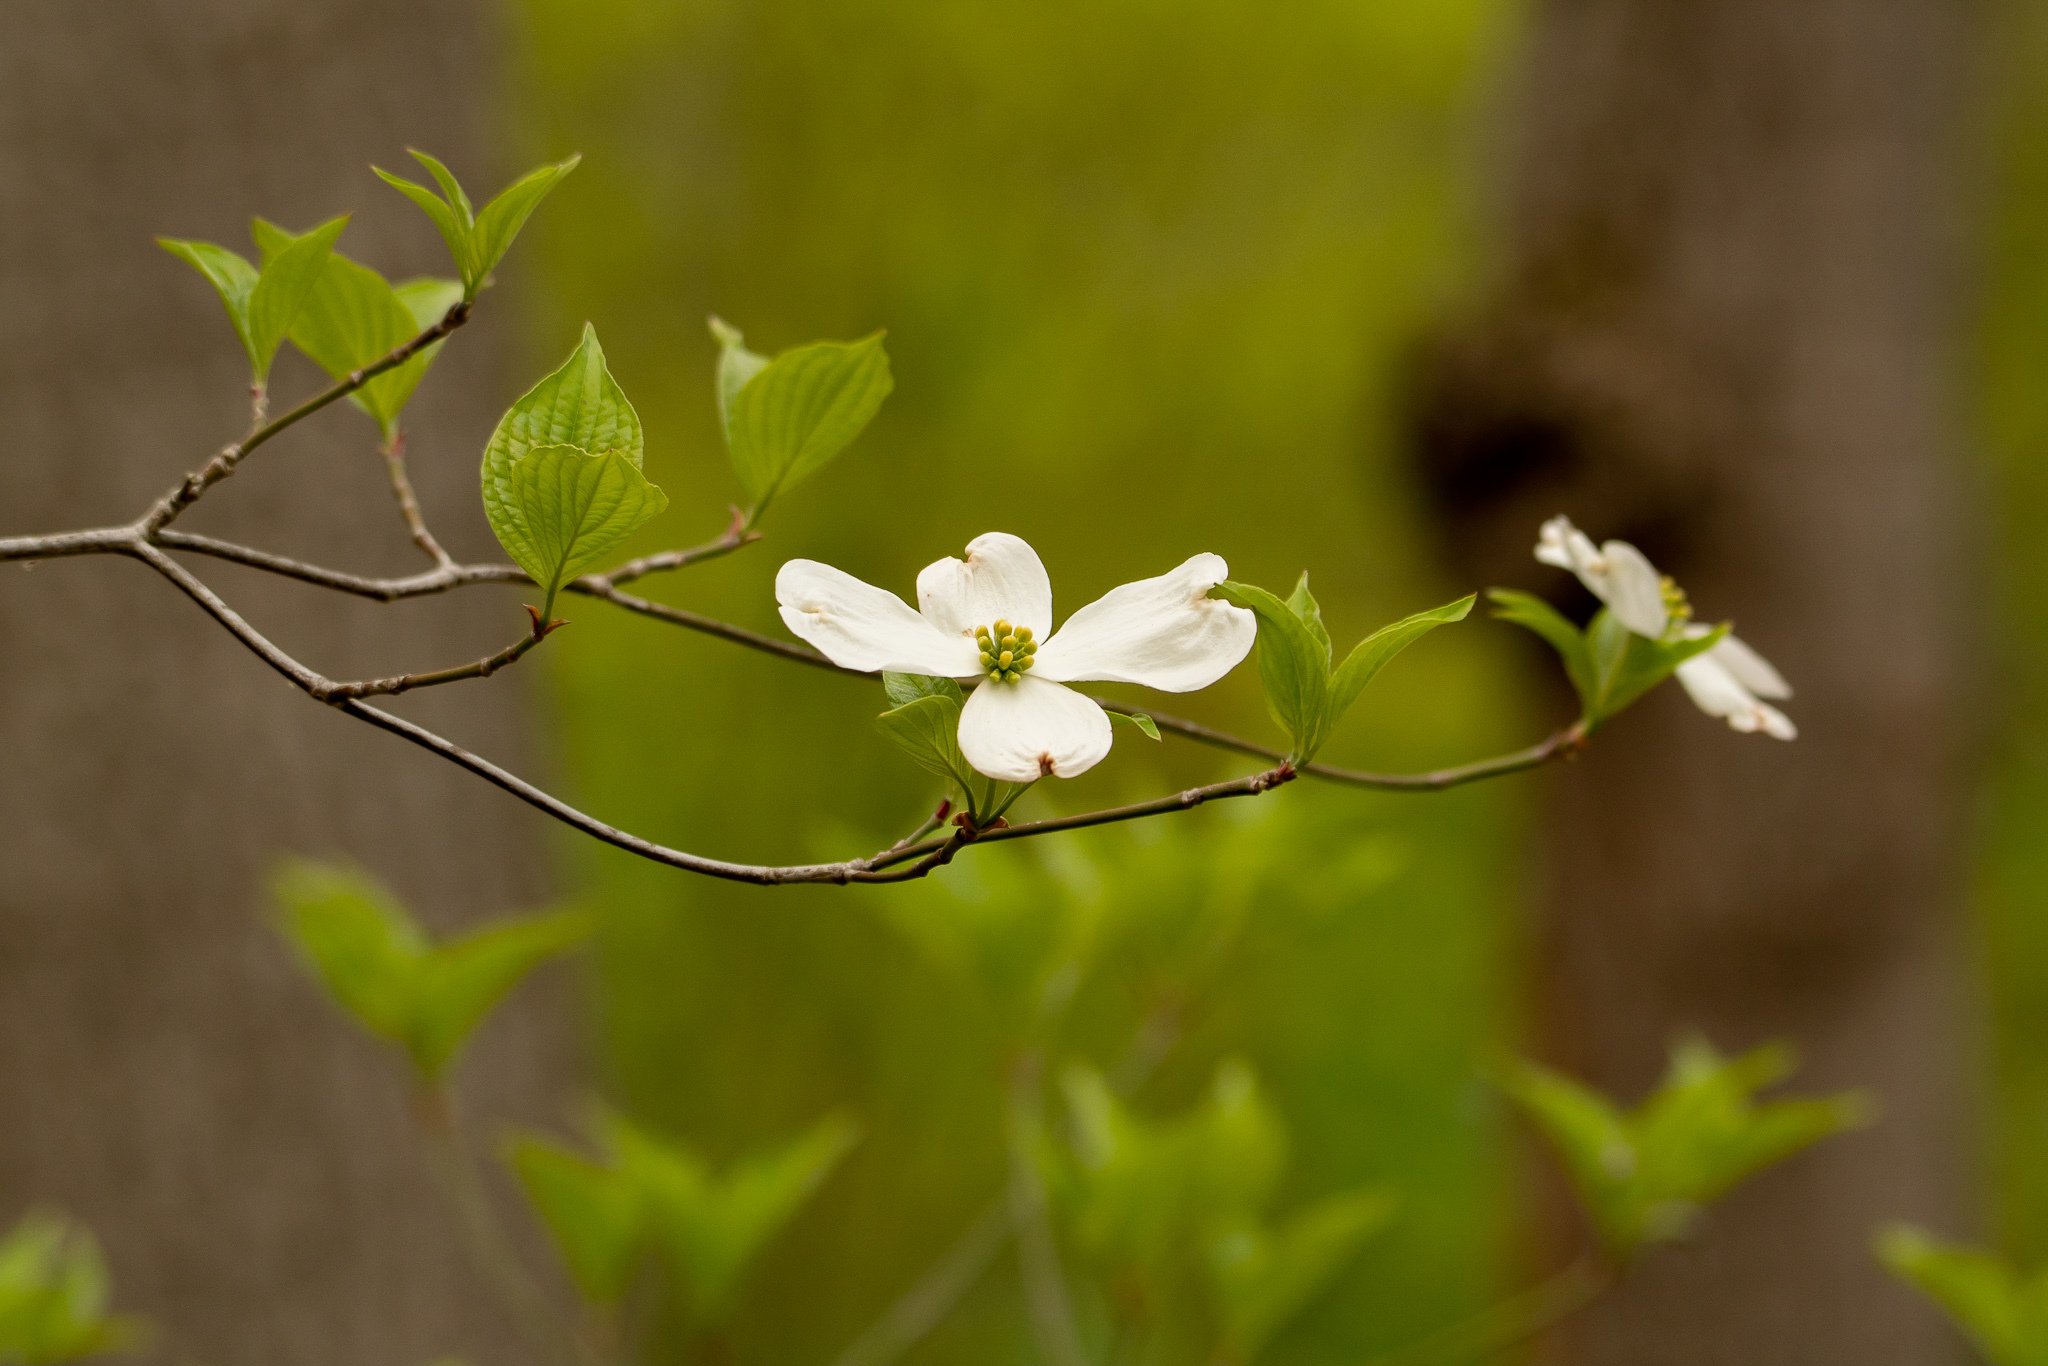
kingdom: Plantae
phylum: Tracheophyta
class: Magnoliopsida
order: Cornales
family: Cornaceae
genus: Cornus
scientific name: Cornus florida
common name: Flowering dogwood
